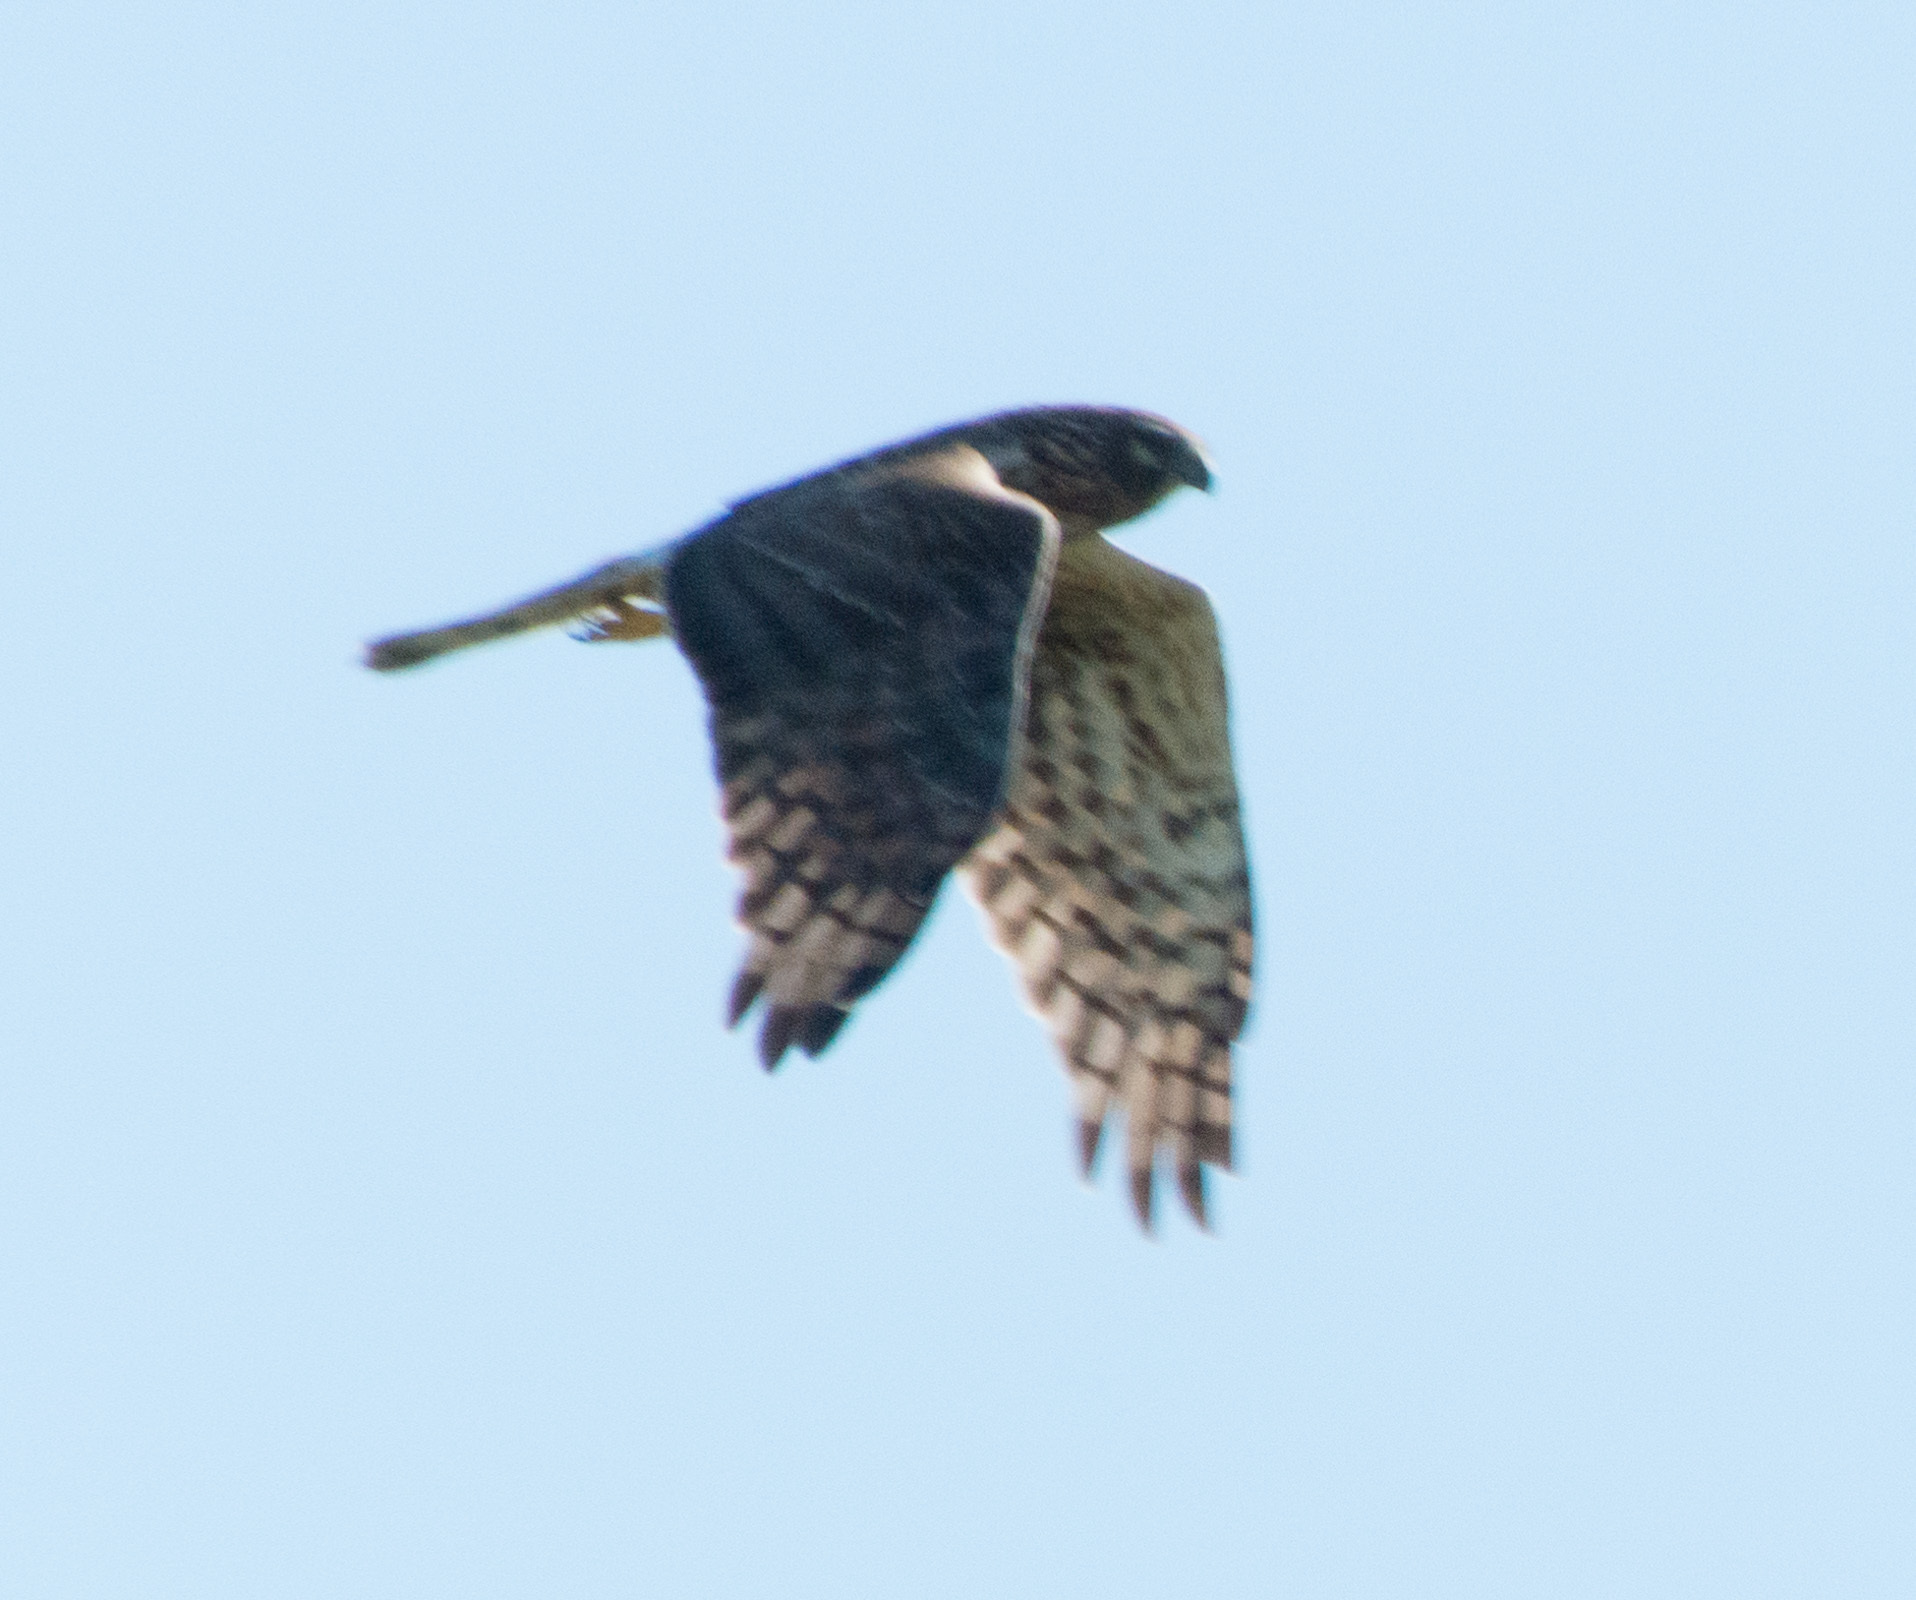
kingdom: Animalia
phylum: Chordata
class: Aves
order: Accipitriformes
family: Accipitridae
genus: Circus
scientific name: Circus cyaneus
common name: Hen harrier
